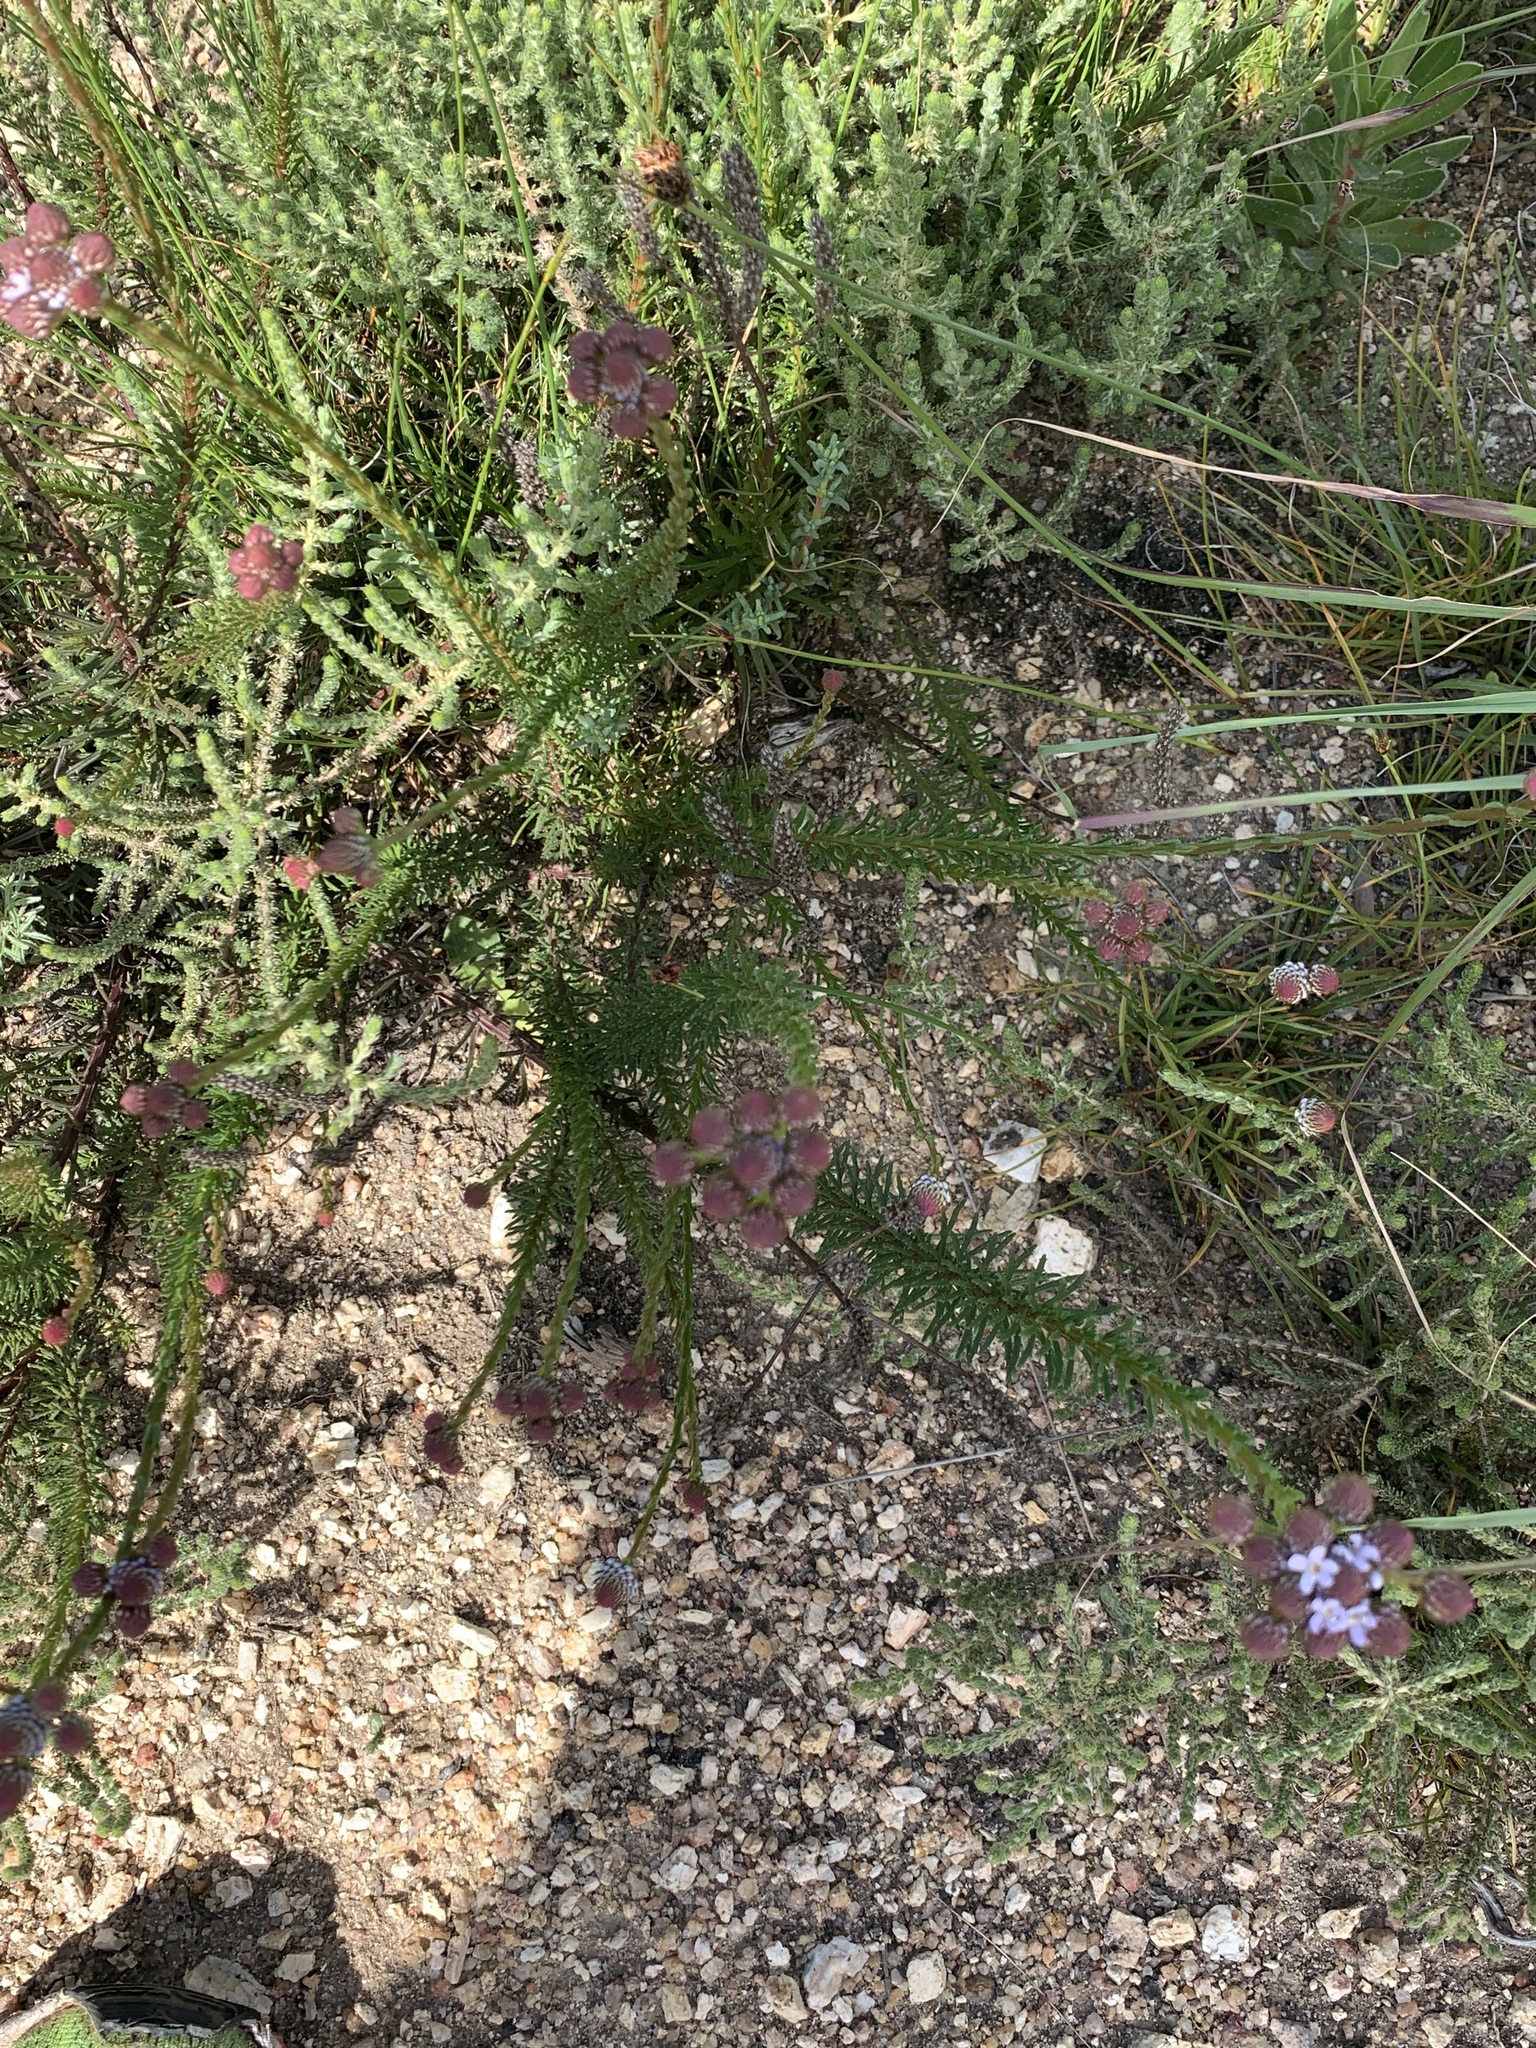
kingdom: Plantae
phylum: Tracheophyta
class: Magnoliopsida
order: Lamiales
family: Scrophulariaceae
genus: Pseudoselago
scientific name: Pseudoselago spuria
